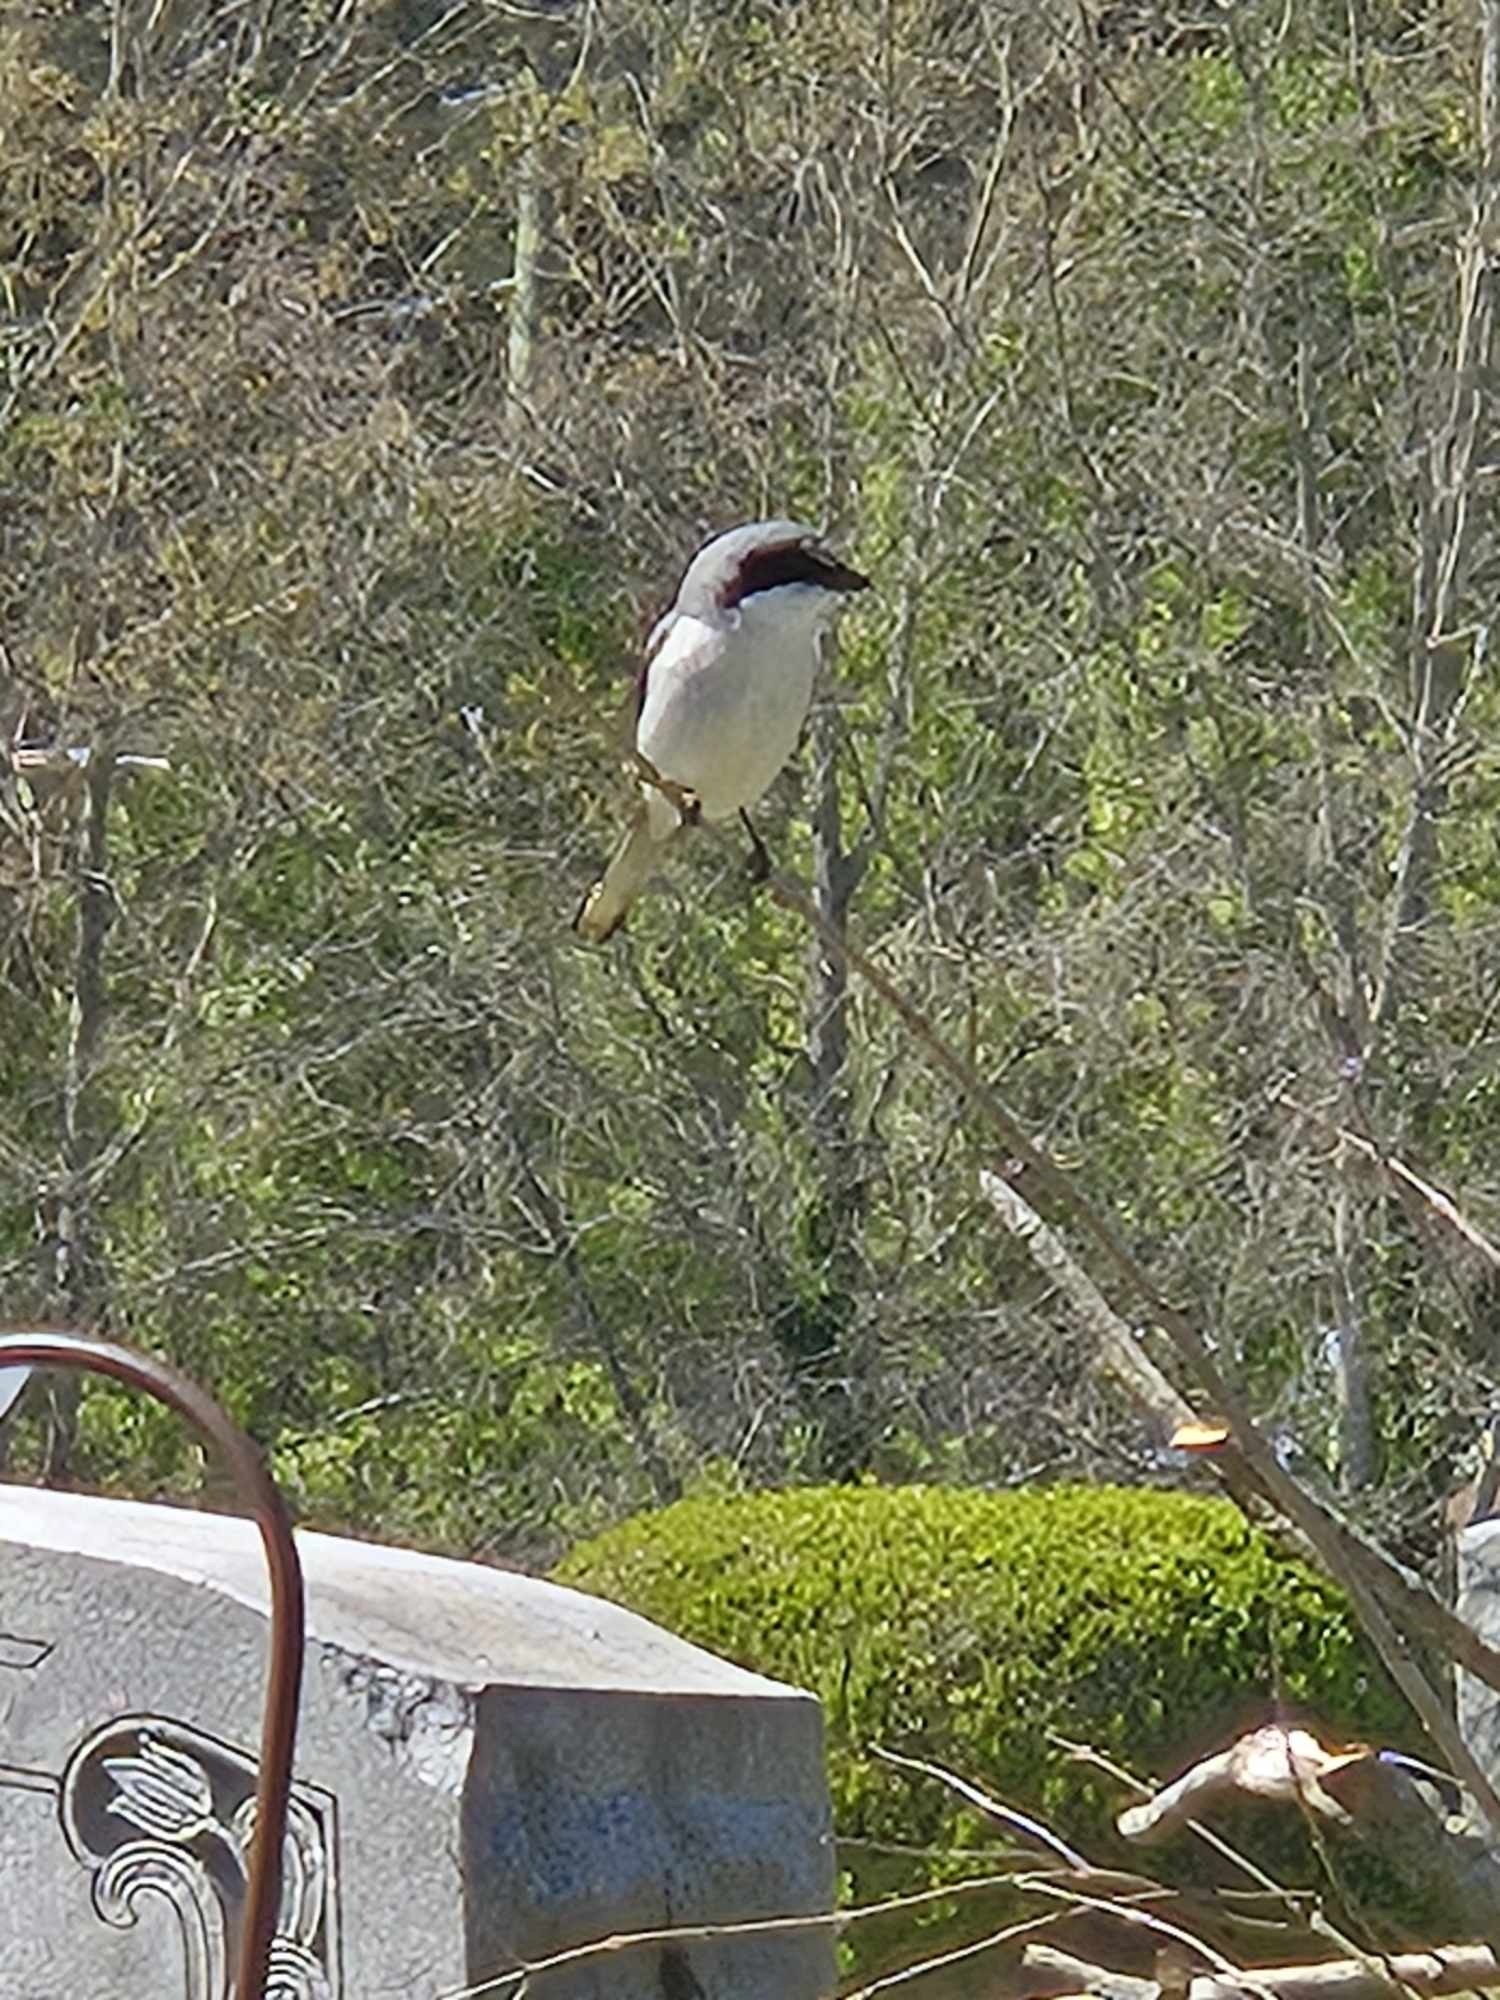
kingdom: Animalia
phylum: Chordata
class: Aves
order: Passeriformes
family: Laniidae
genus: Lanius
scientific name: Lanius ludovicianus
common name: Loggerhead shrike
